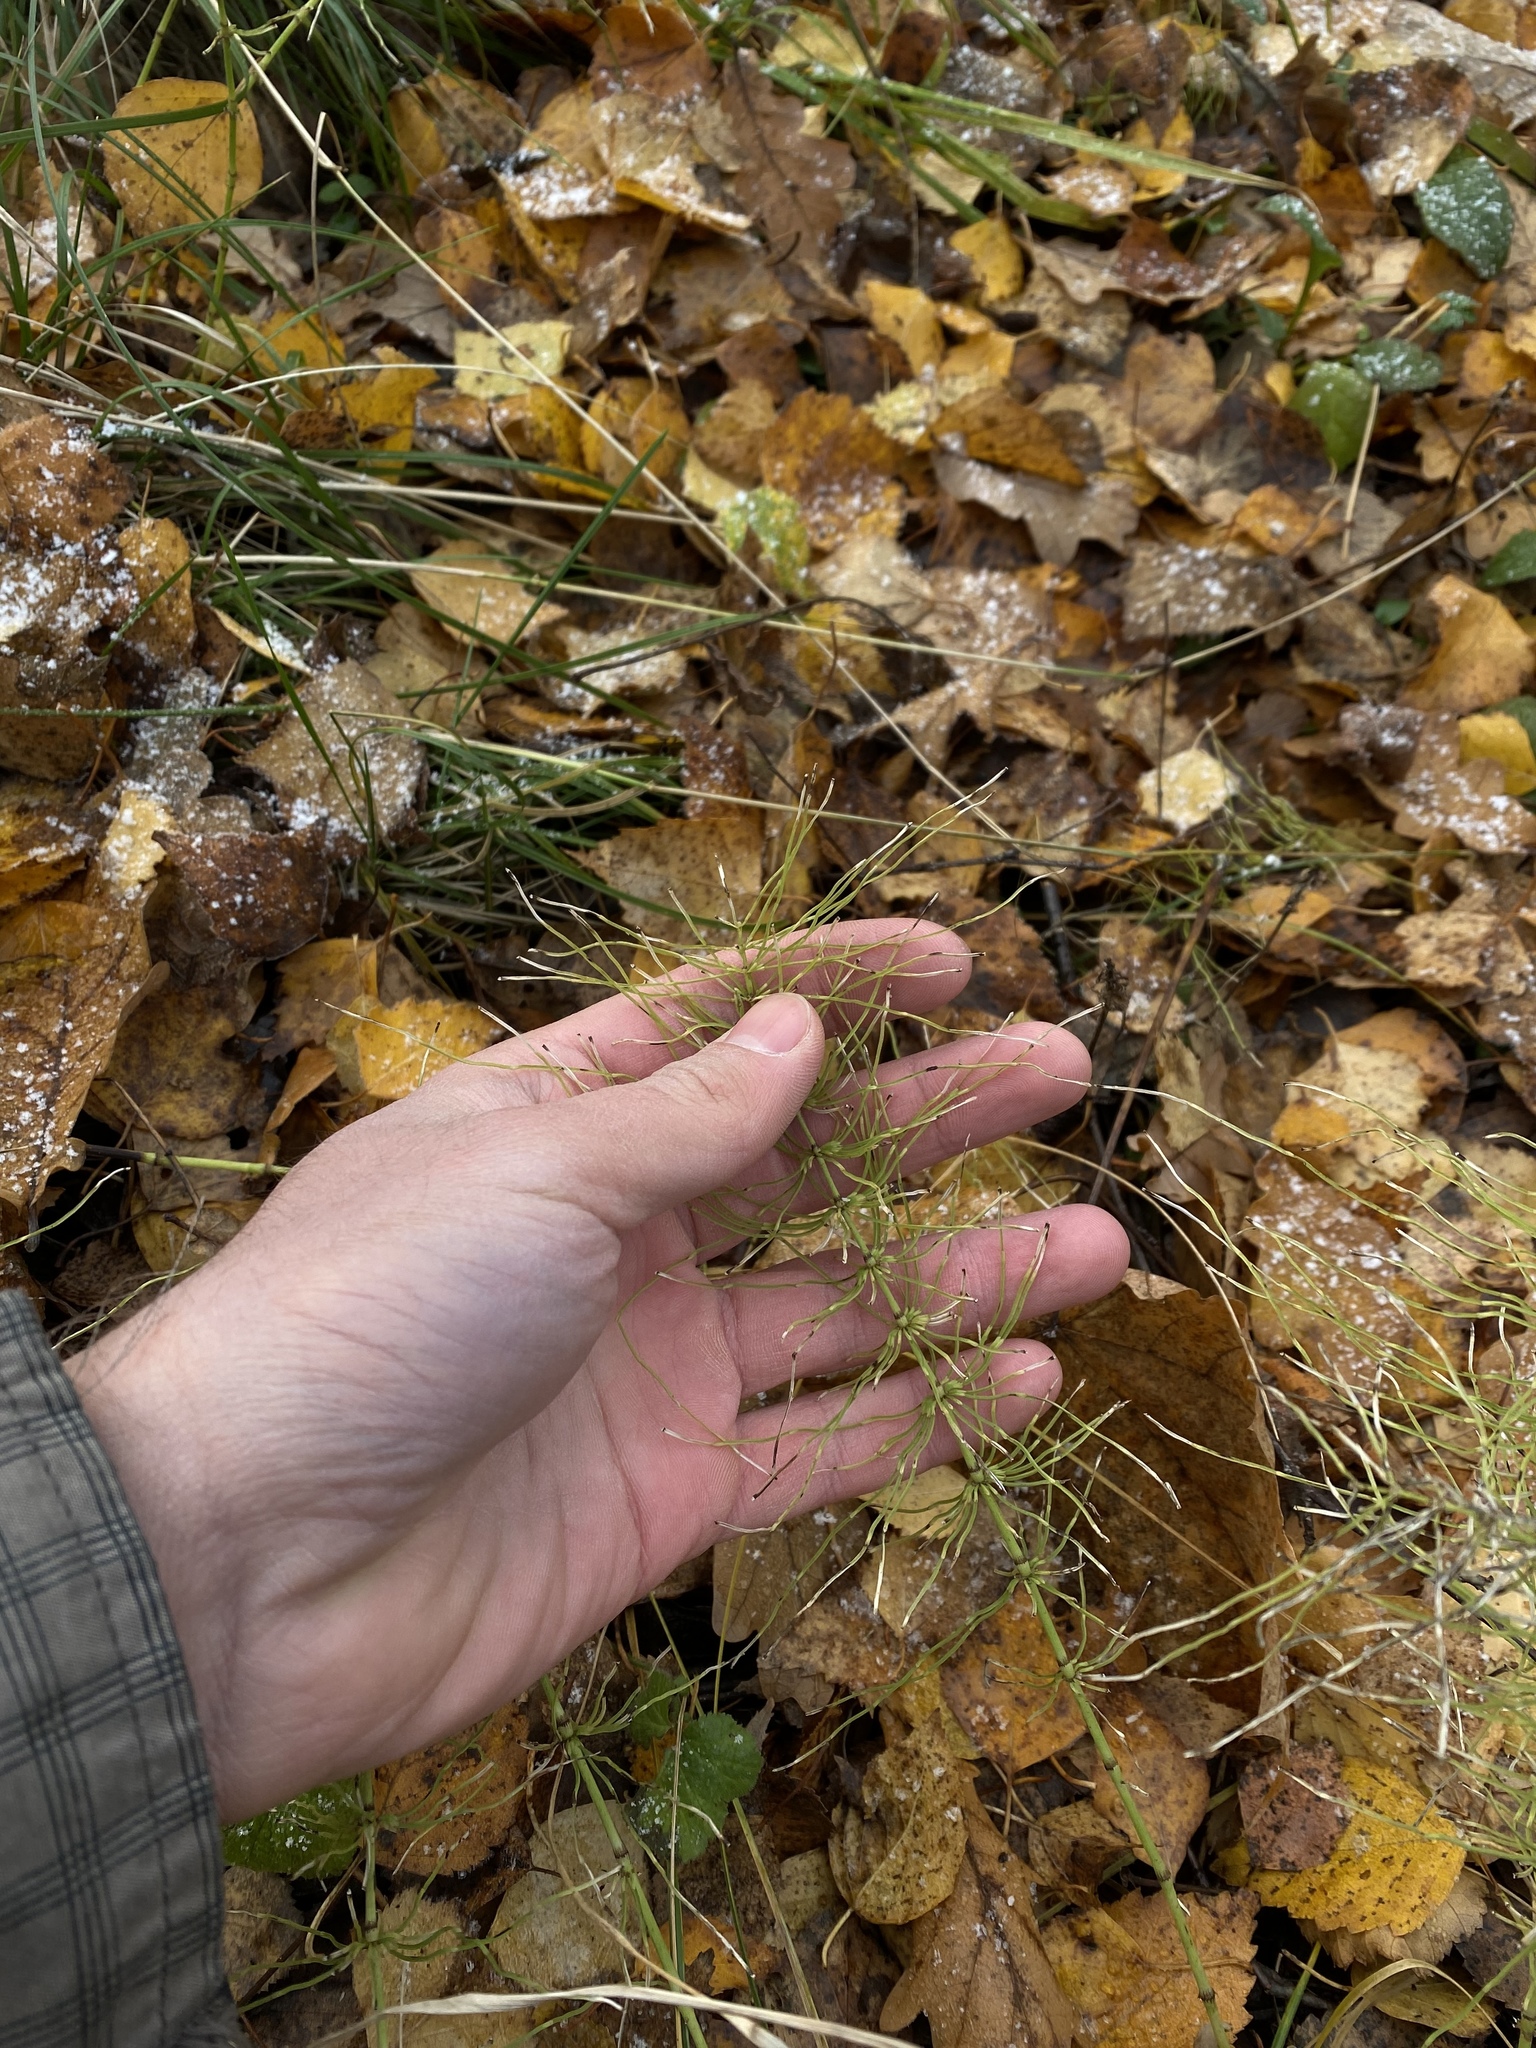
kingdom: Plantae
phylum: Tracheophyta
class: Polypodiopsida
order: Equisetales
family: Equisetaceae
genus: Equisetum
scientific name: Equisetum pratense
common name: Meadow horsetail
